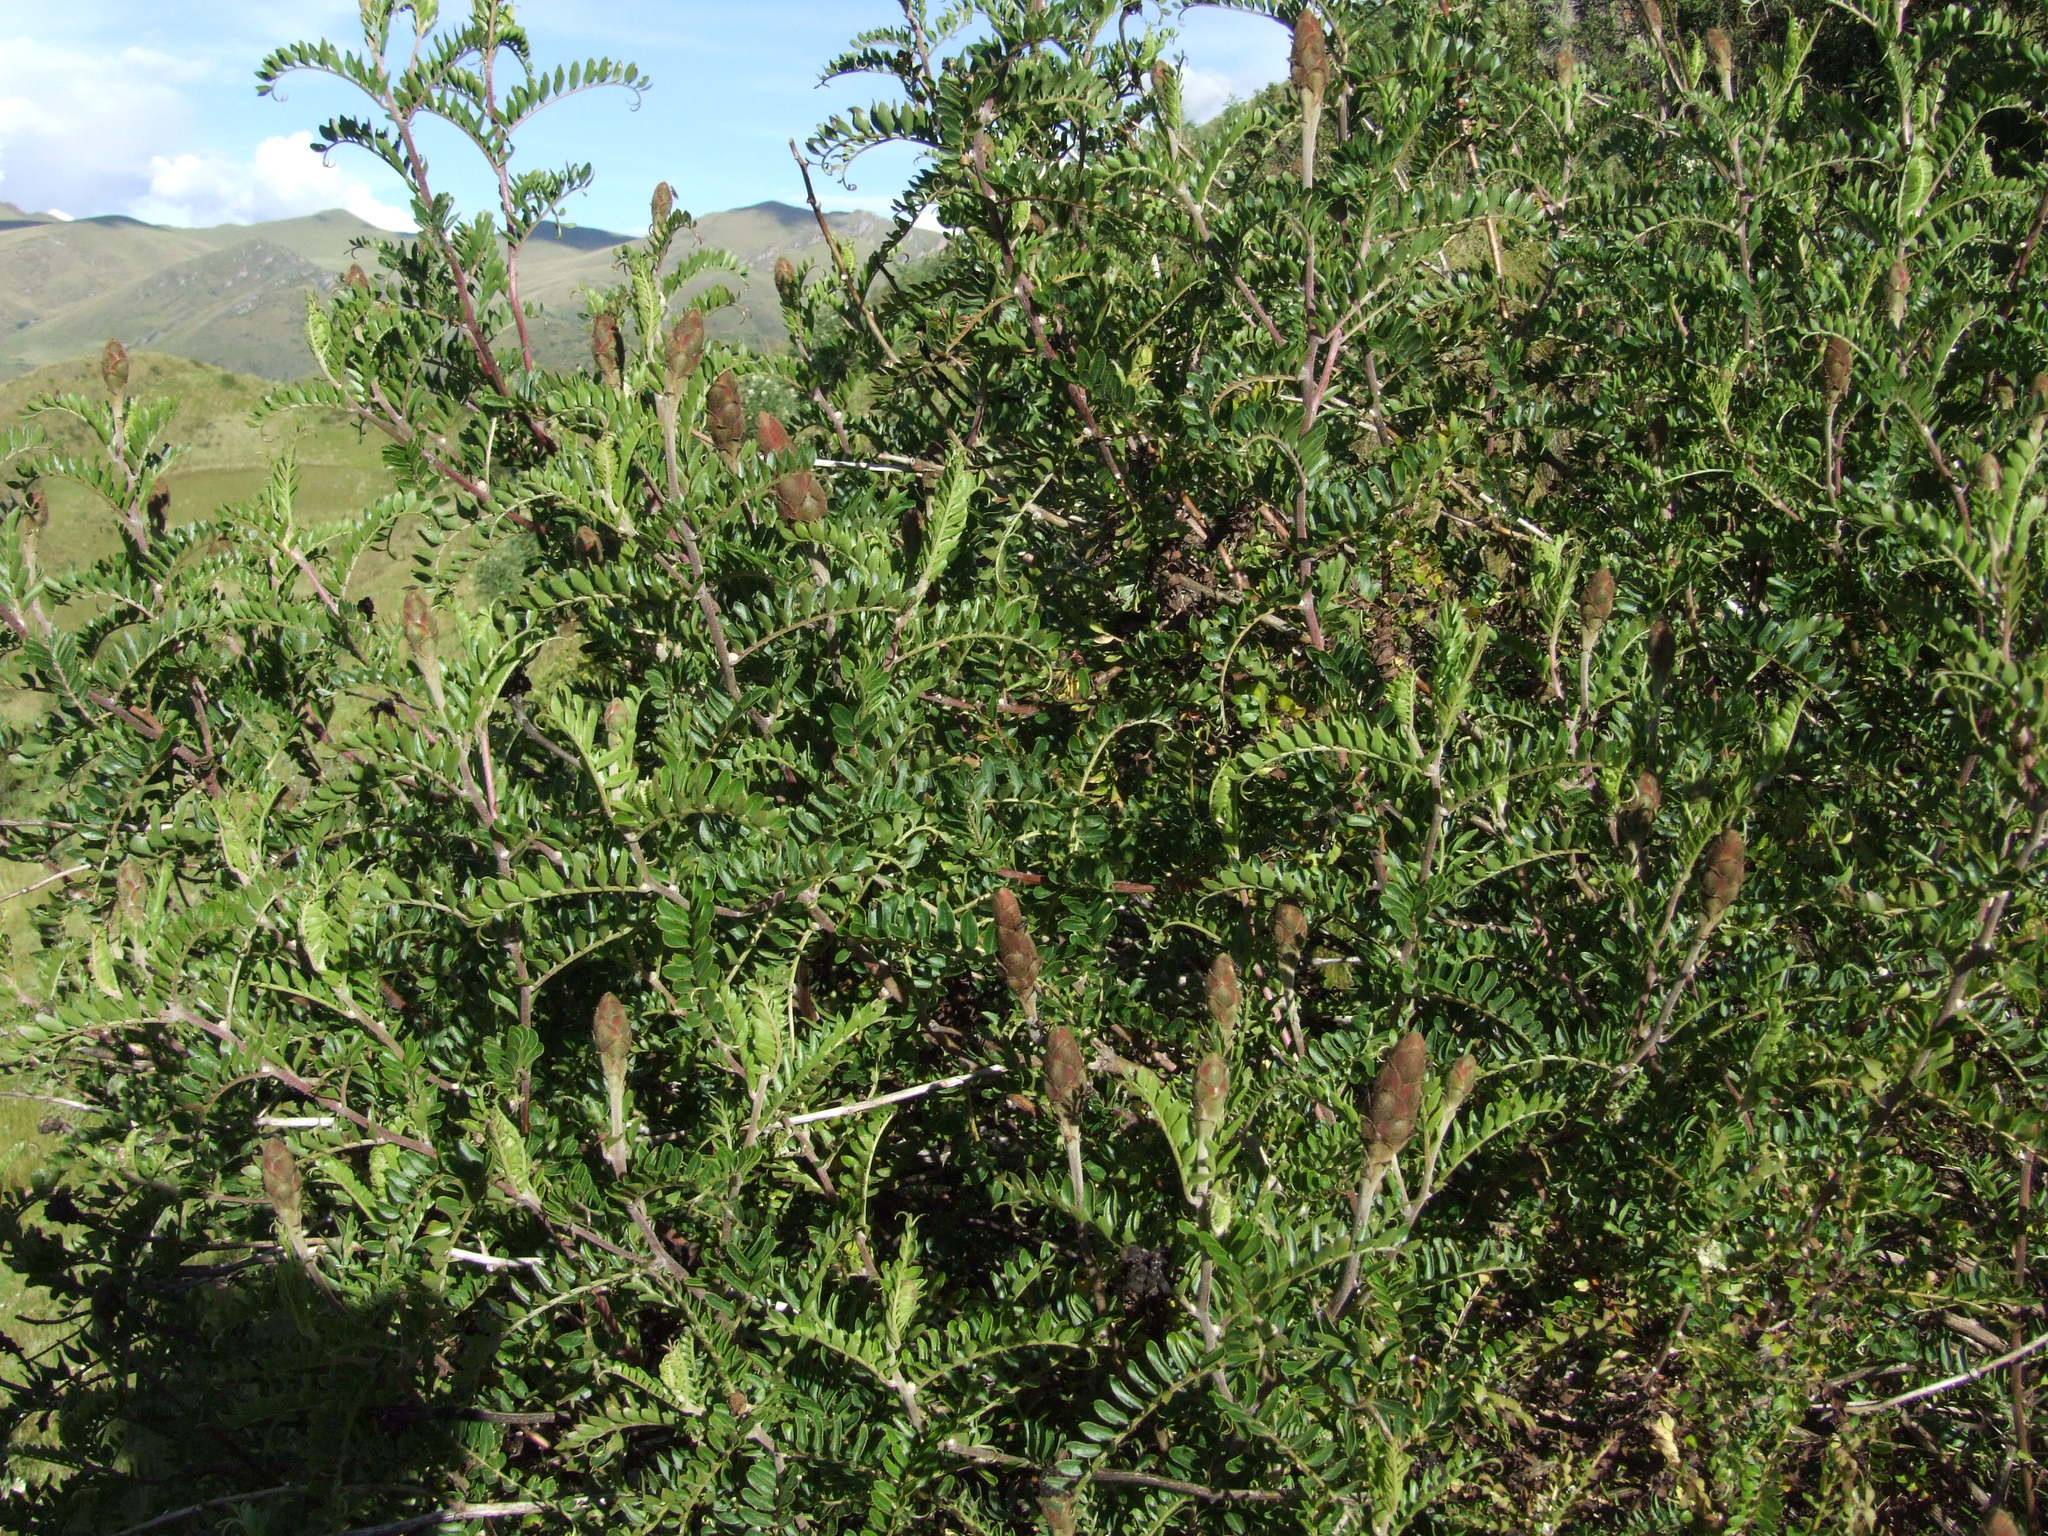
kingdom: Plantae
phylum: Tracheophyta
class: Magnoliopsida
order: Asterales
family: Asteraceae
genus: Mutisia
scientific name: Mutisia acuminata
